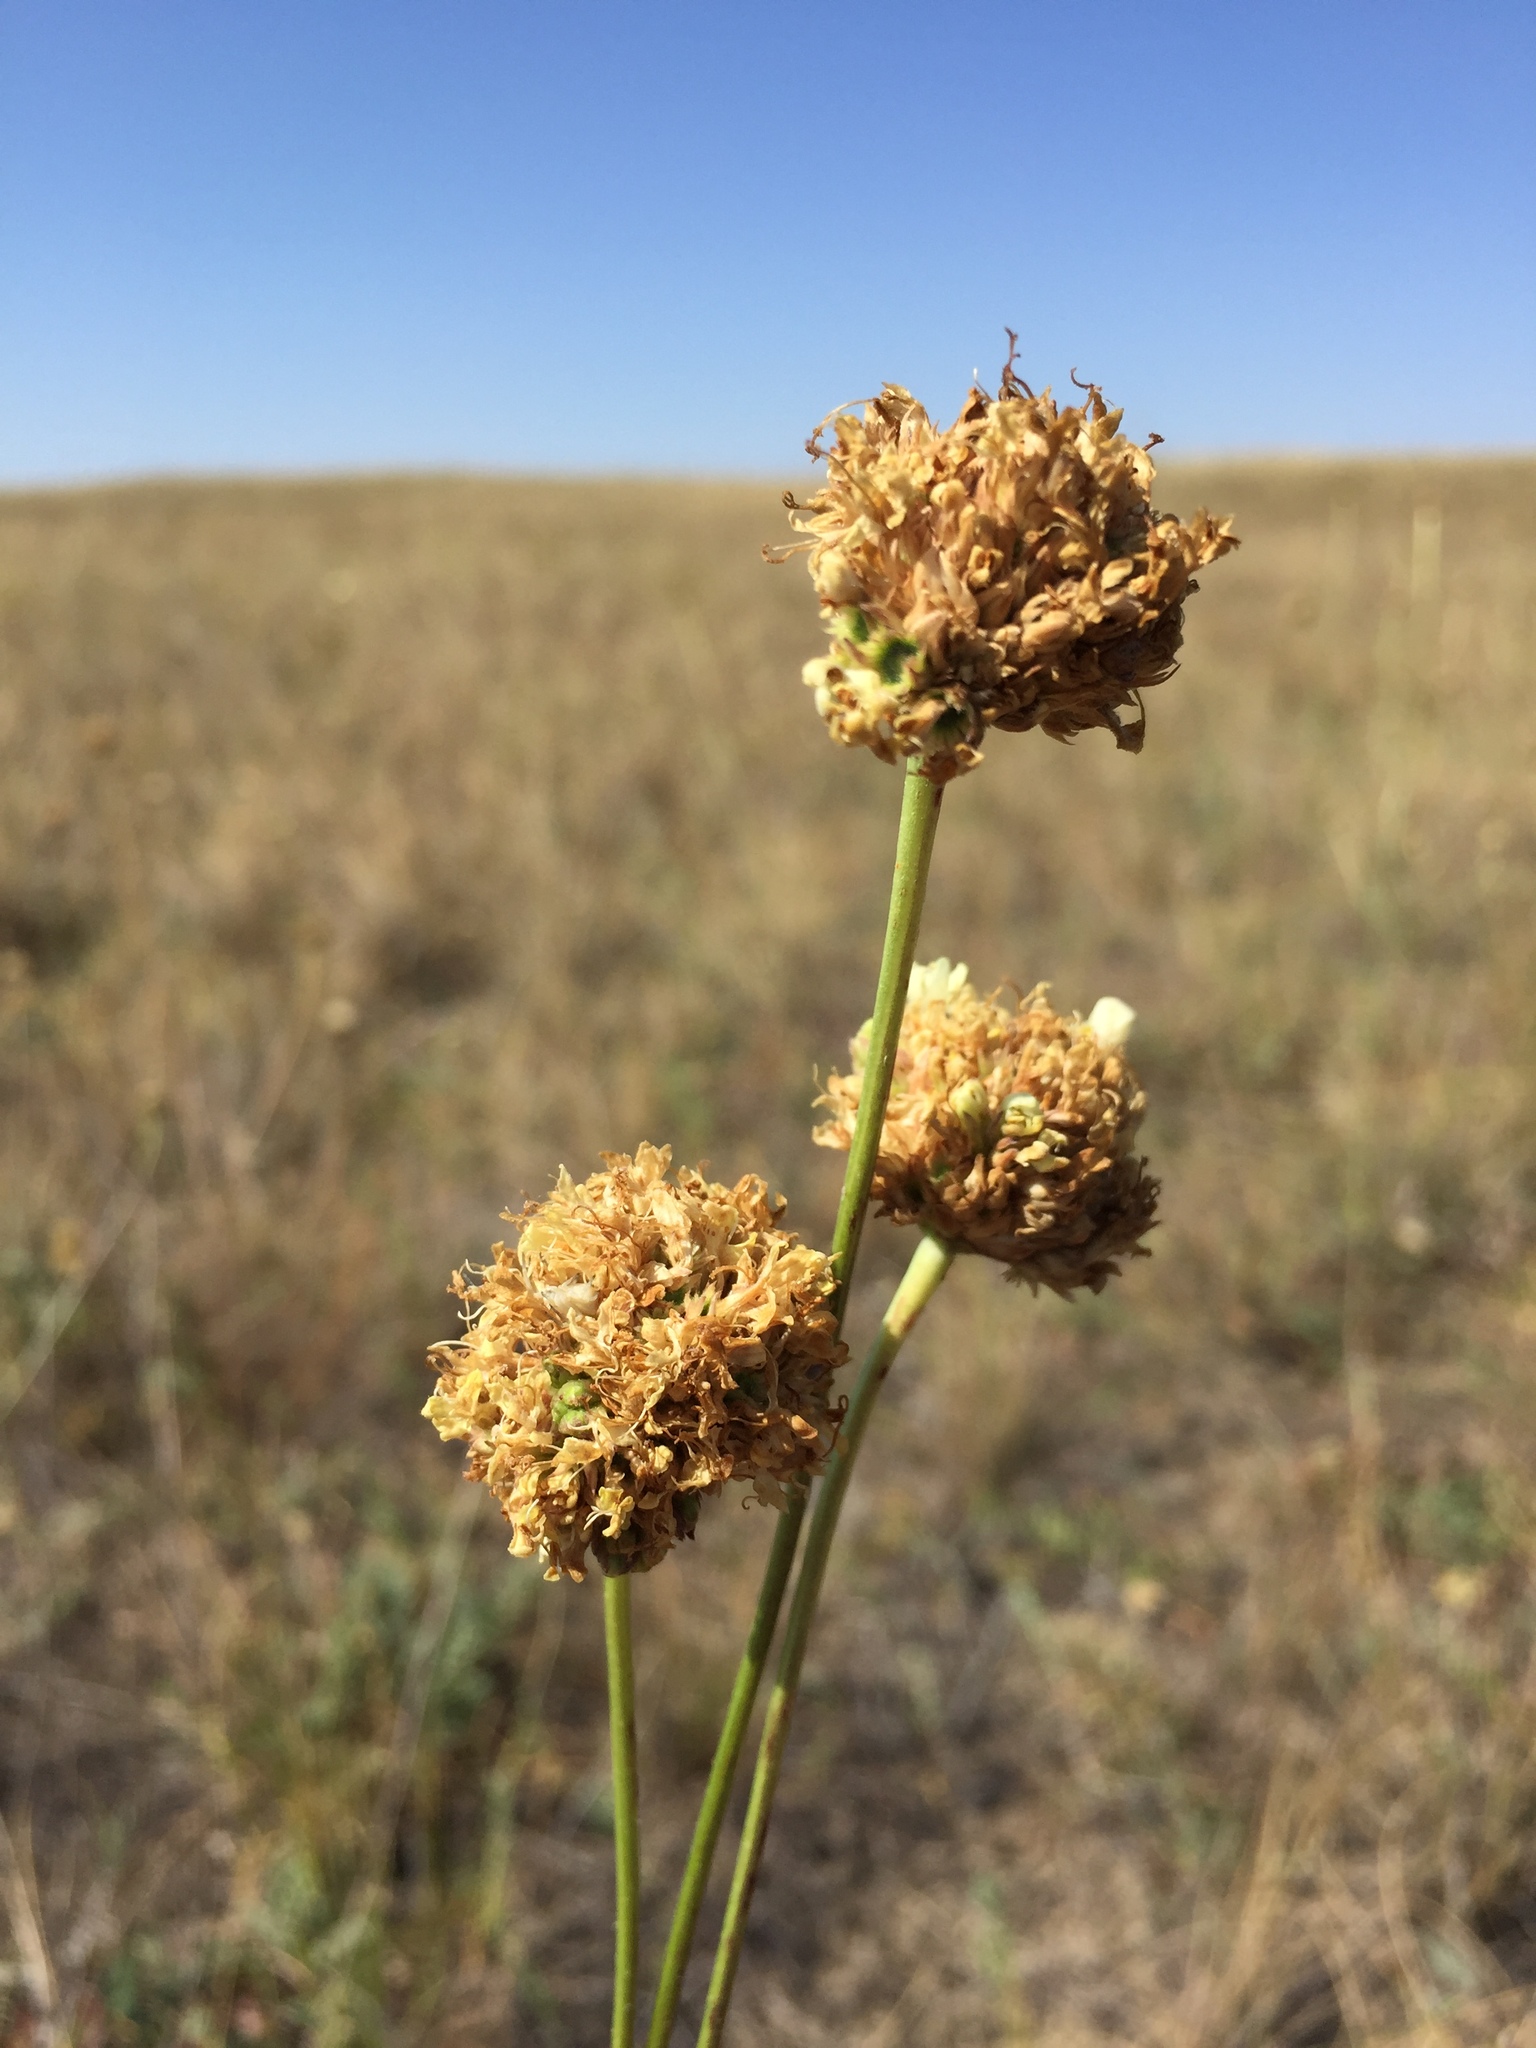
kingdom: Plantae
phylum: Tracheophyta
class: Magnoliopsida
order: Dipsacales
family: Caprifoliaceae
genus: Cephalaria
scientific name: Cephalaria uralensis
